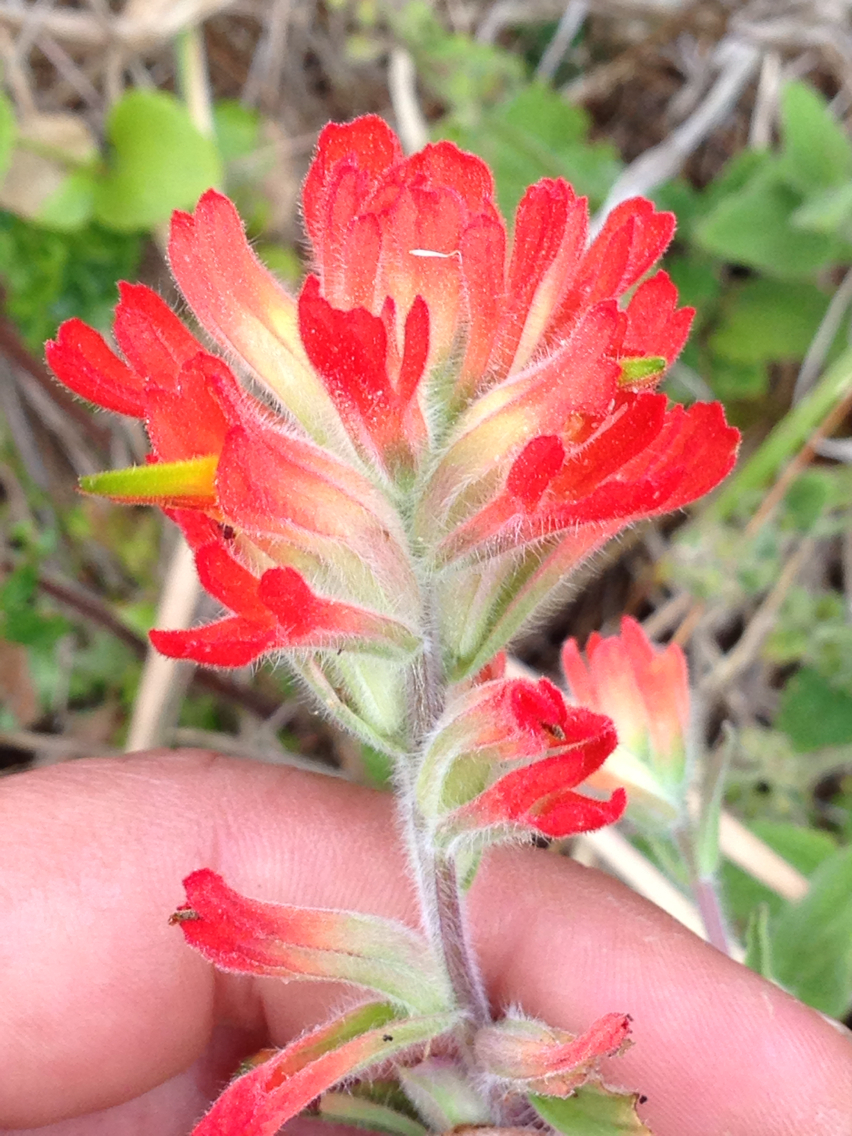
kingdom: Plantae
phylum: Tracheophyta
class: Magnoliopsida
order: Lamiales
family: Orobanchaceae
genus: Castilleja
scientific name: Castilleja affinis
